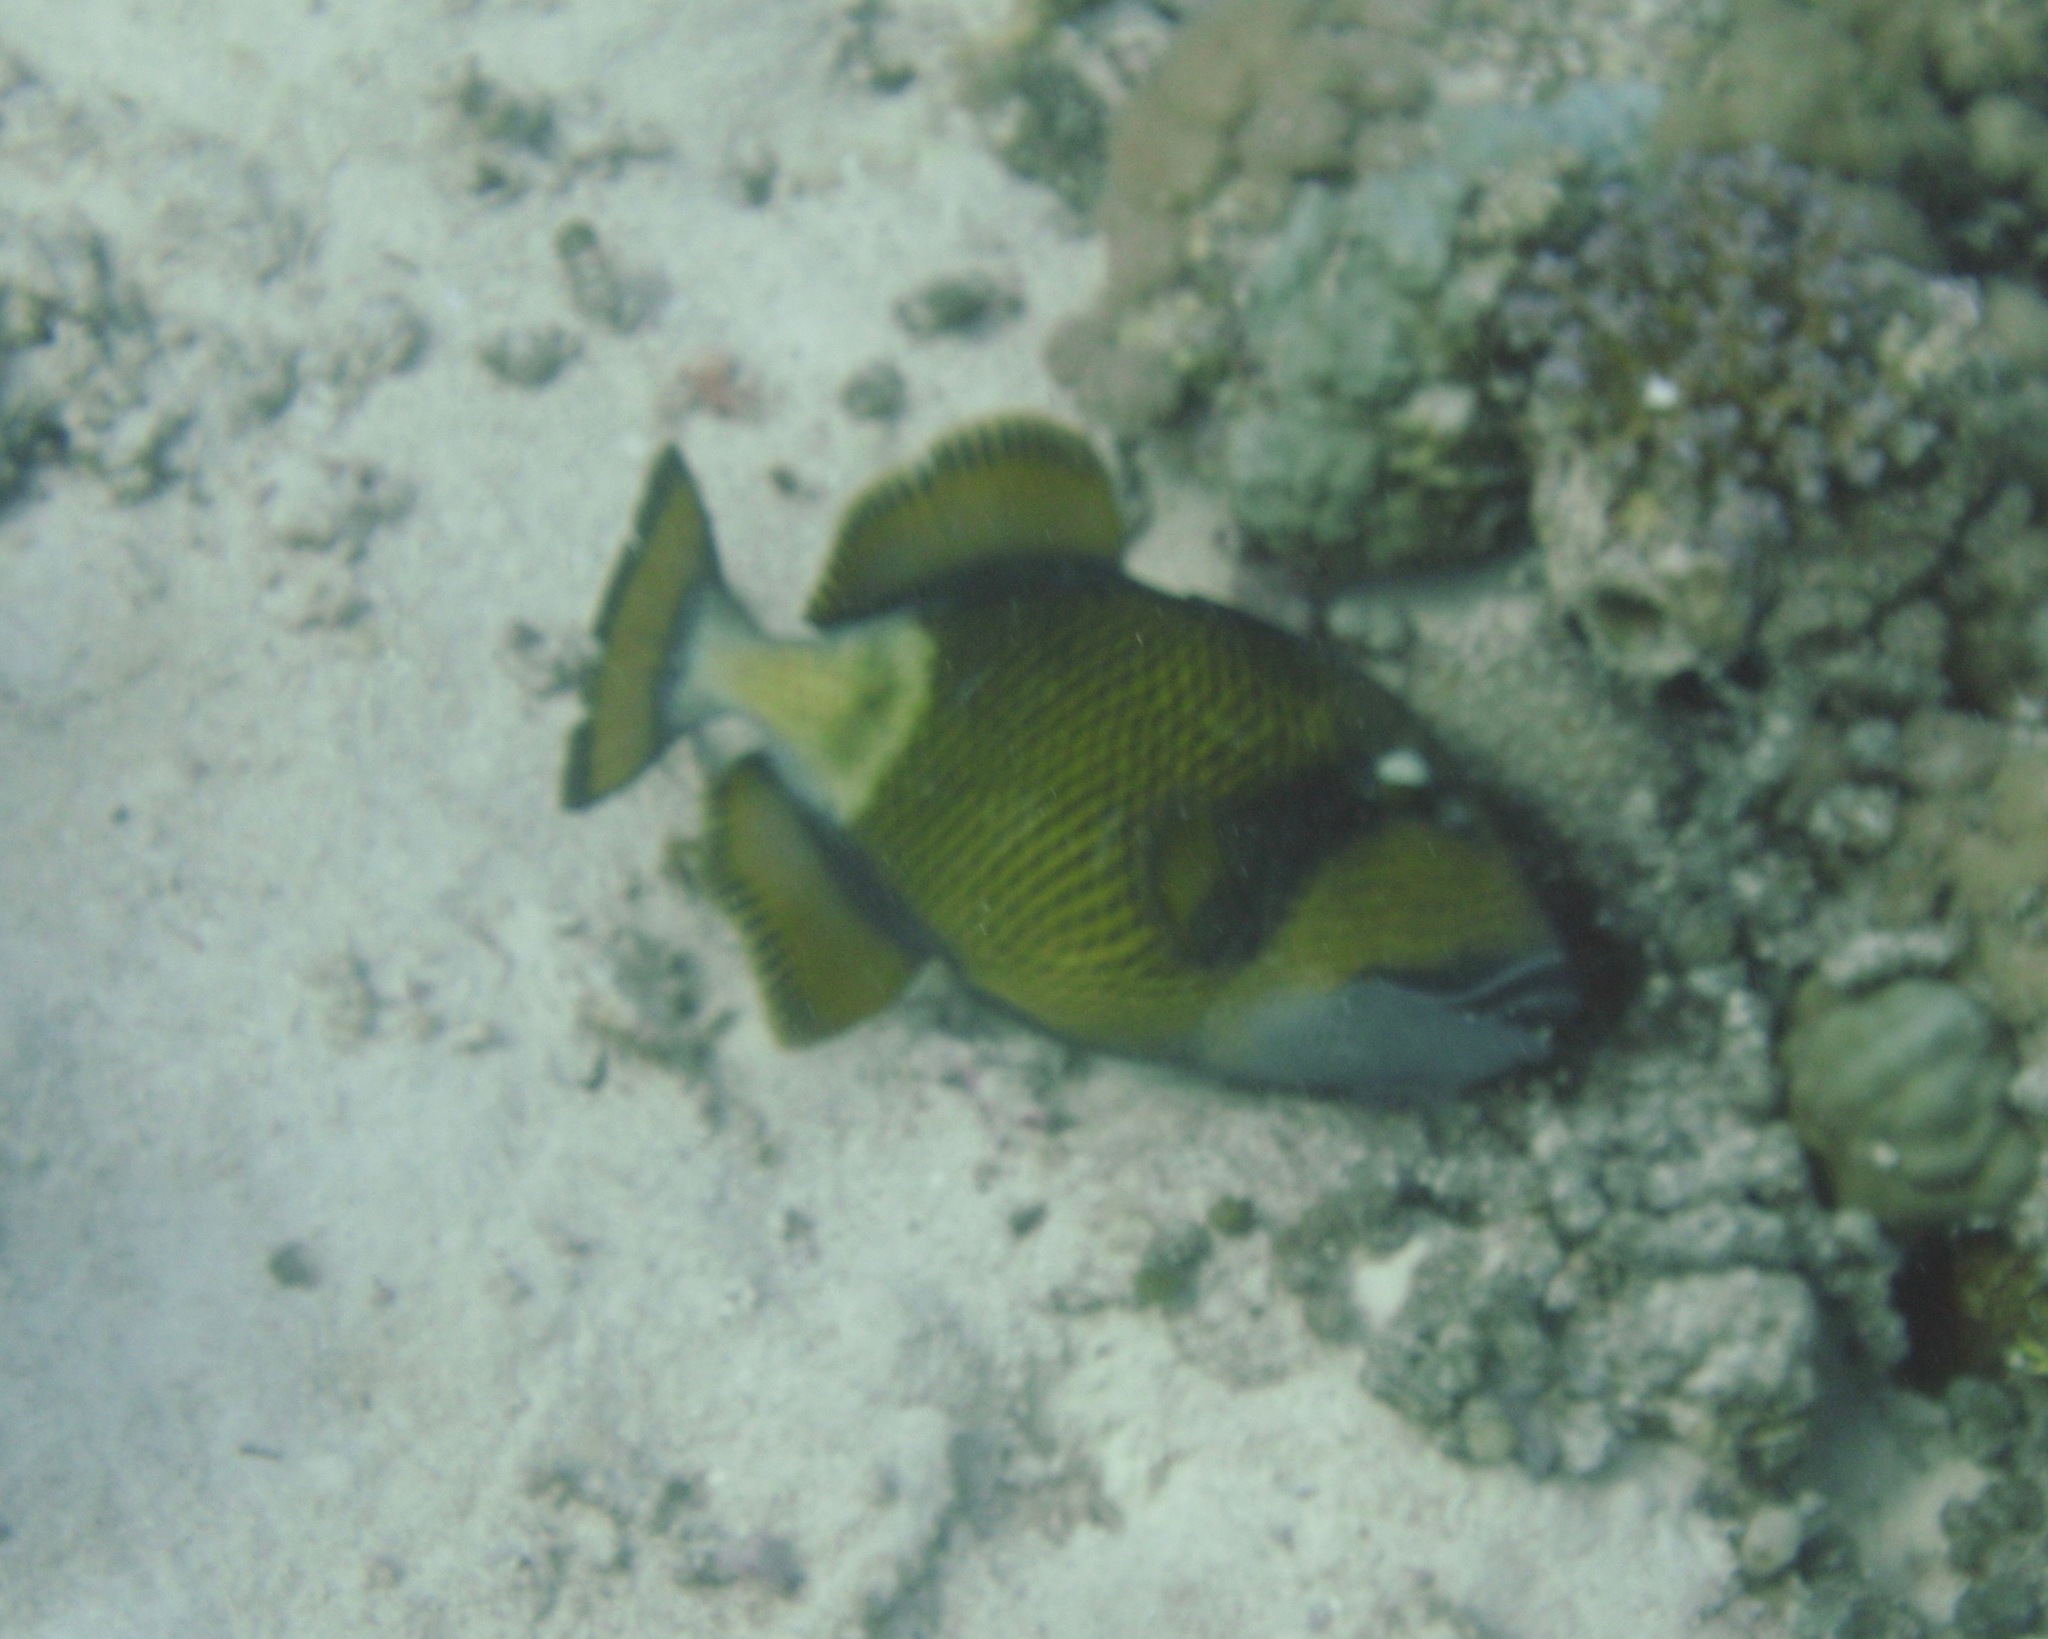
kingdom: Animalia
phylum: Chordata
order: Tetraodontiformes
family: Balistidae
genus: Balistoides
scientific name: Balistoides viridescens
